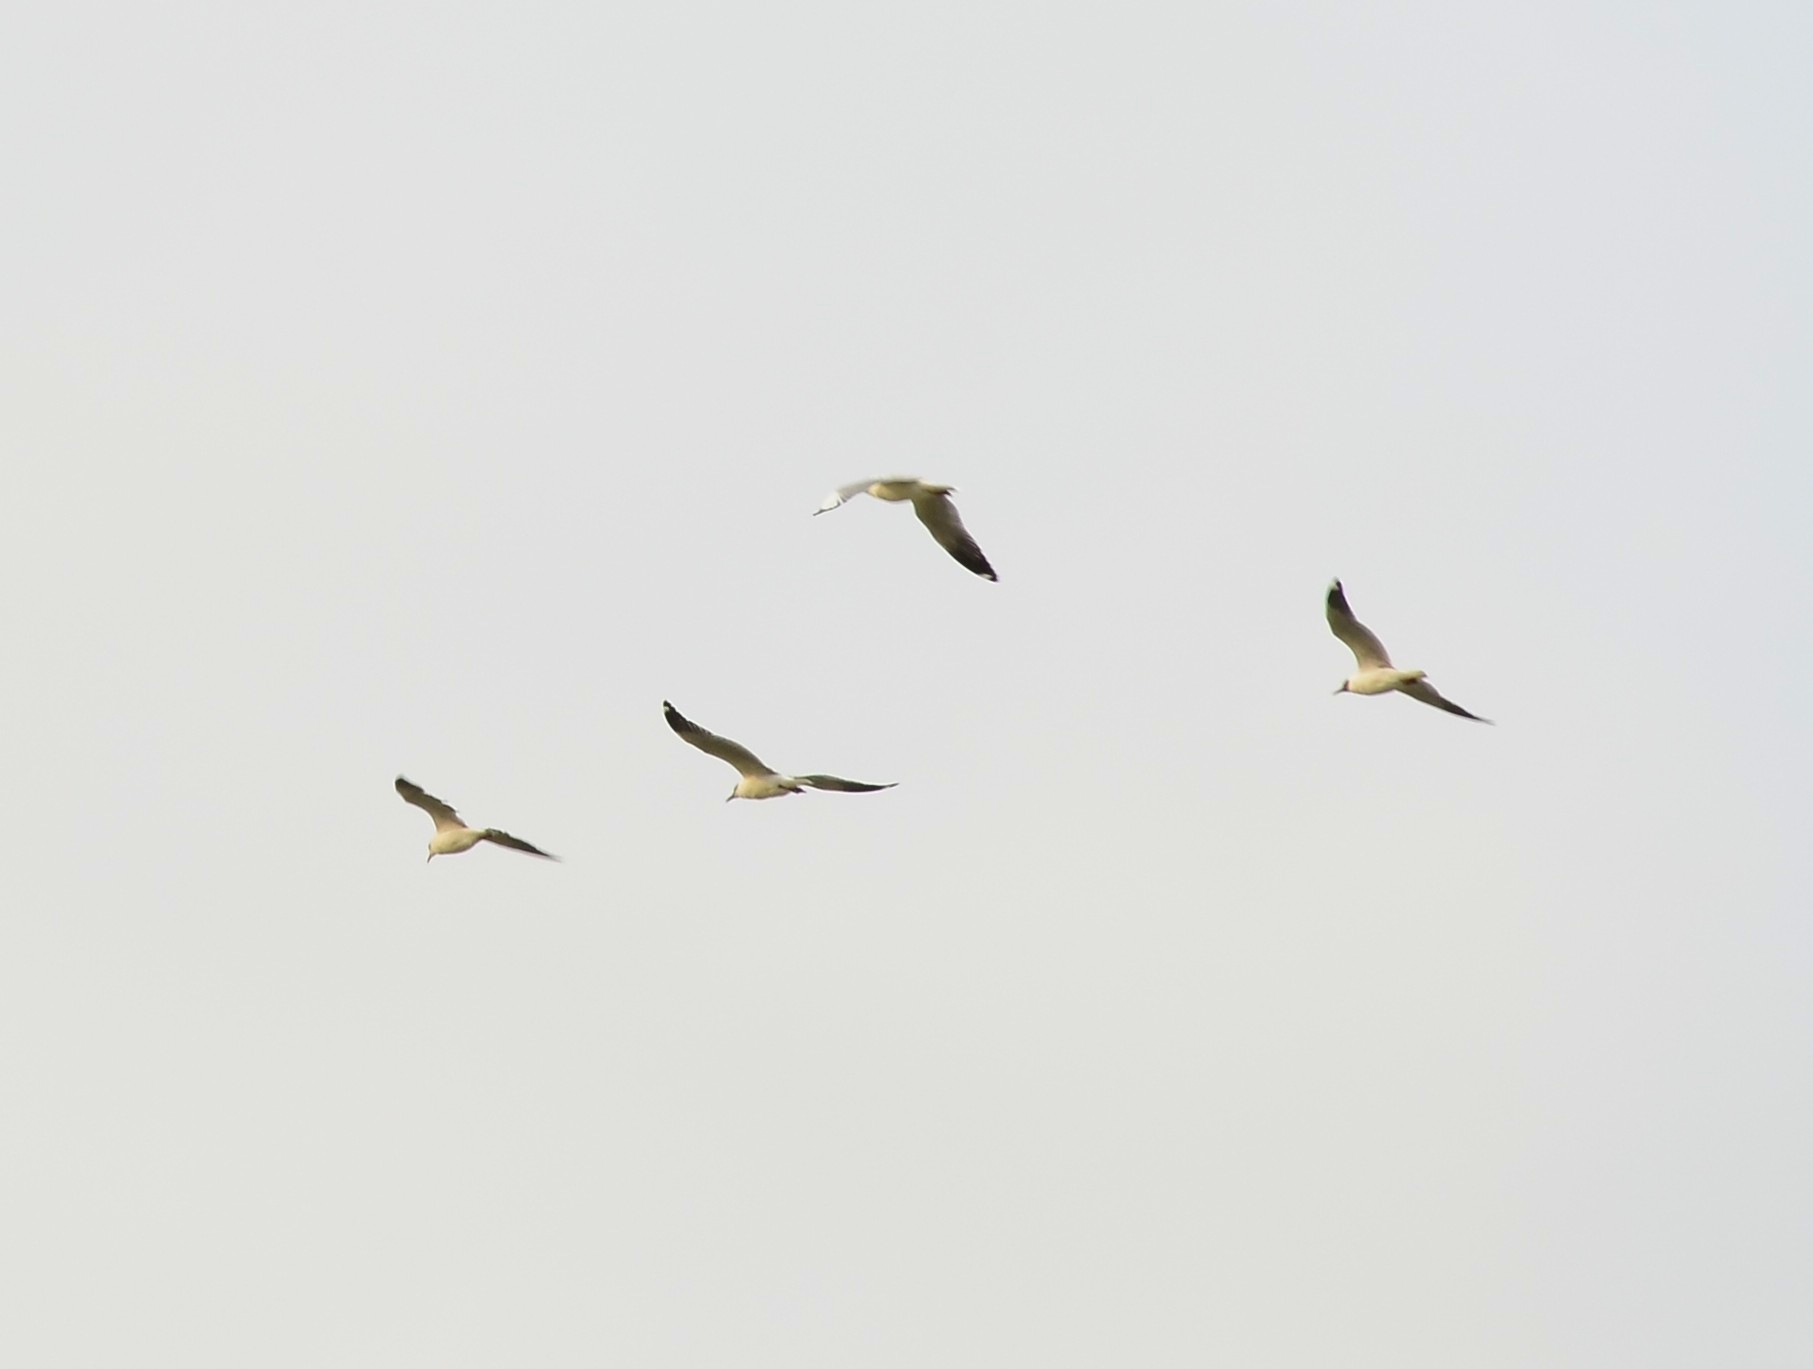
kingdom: Animalia
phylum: Chordata
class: Aves
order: Charadriiformes
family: Laridae
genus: Chroicocephalus
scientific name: Chroicocephalus brunnicephalus
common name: Brown-headed gull
